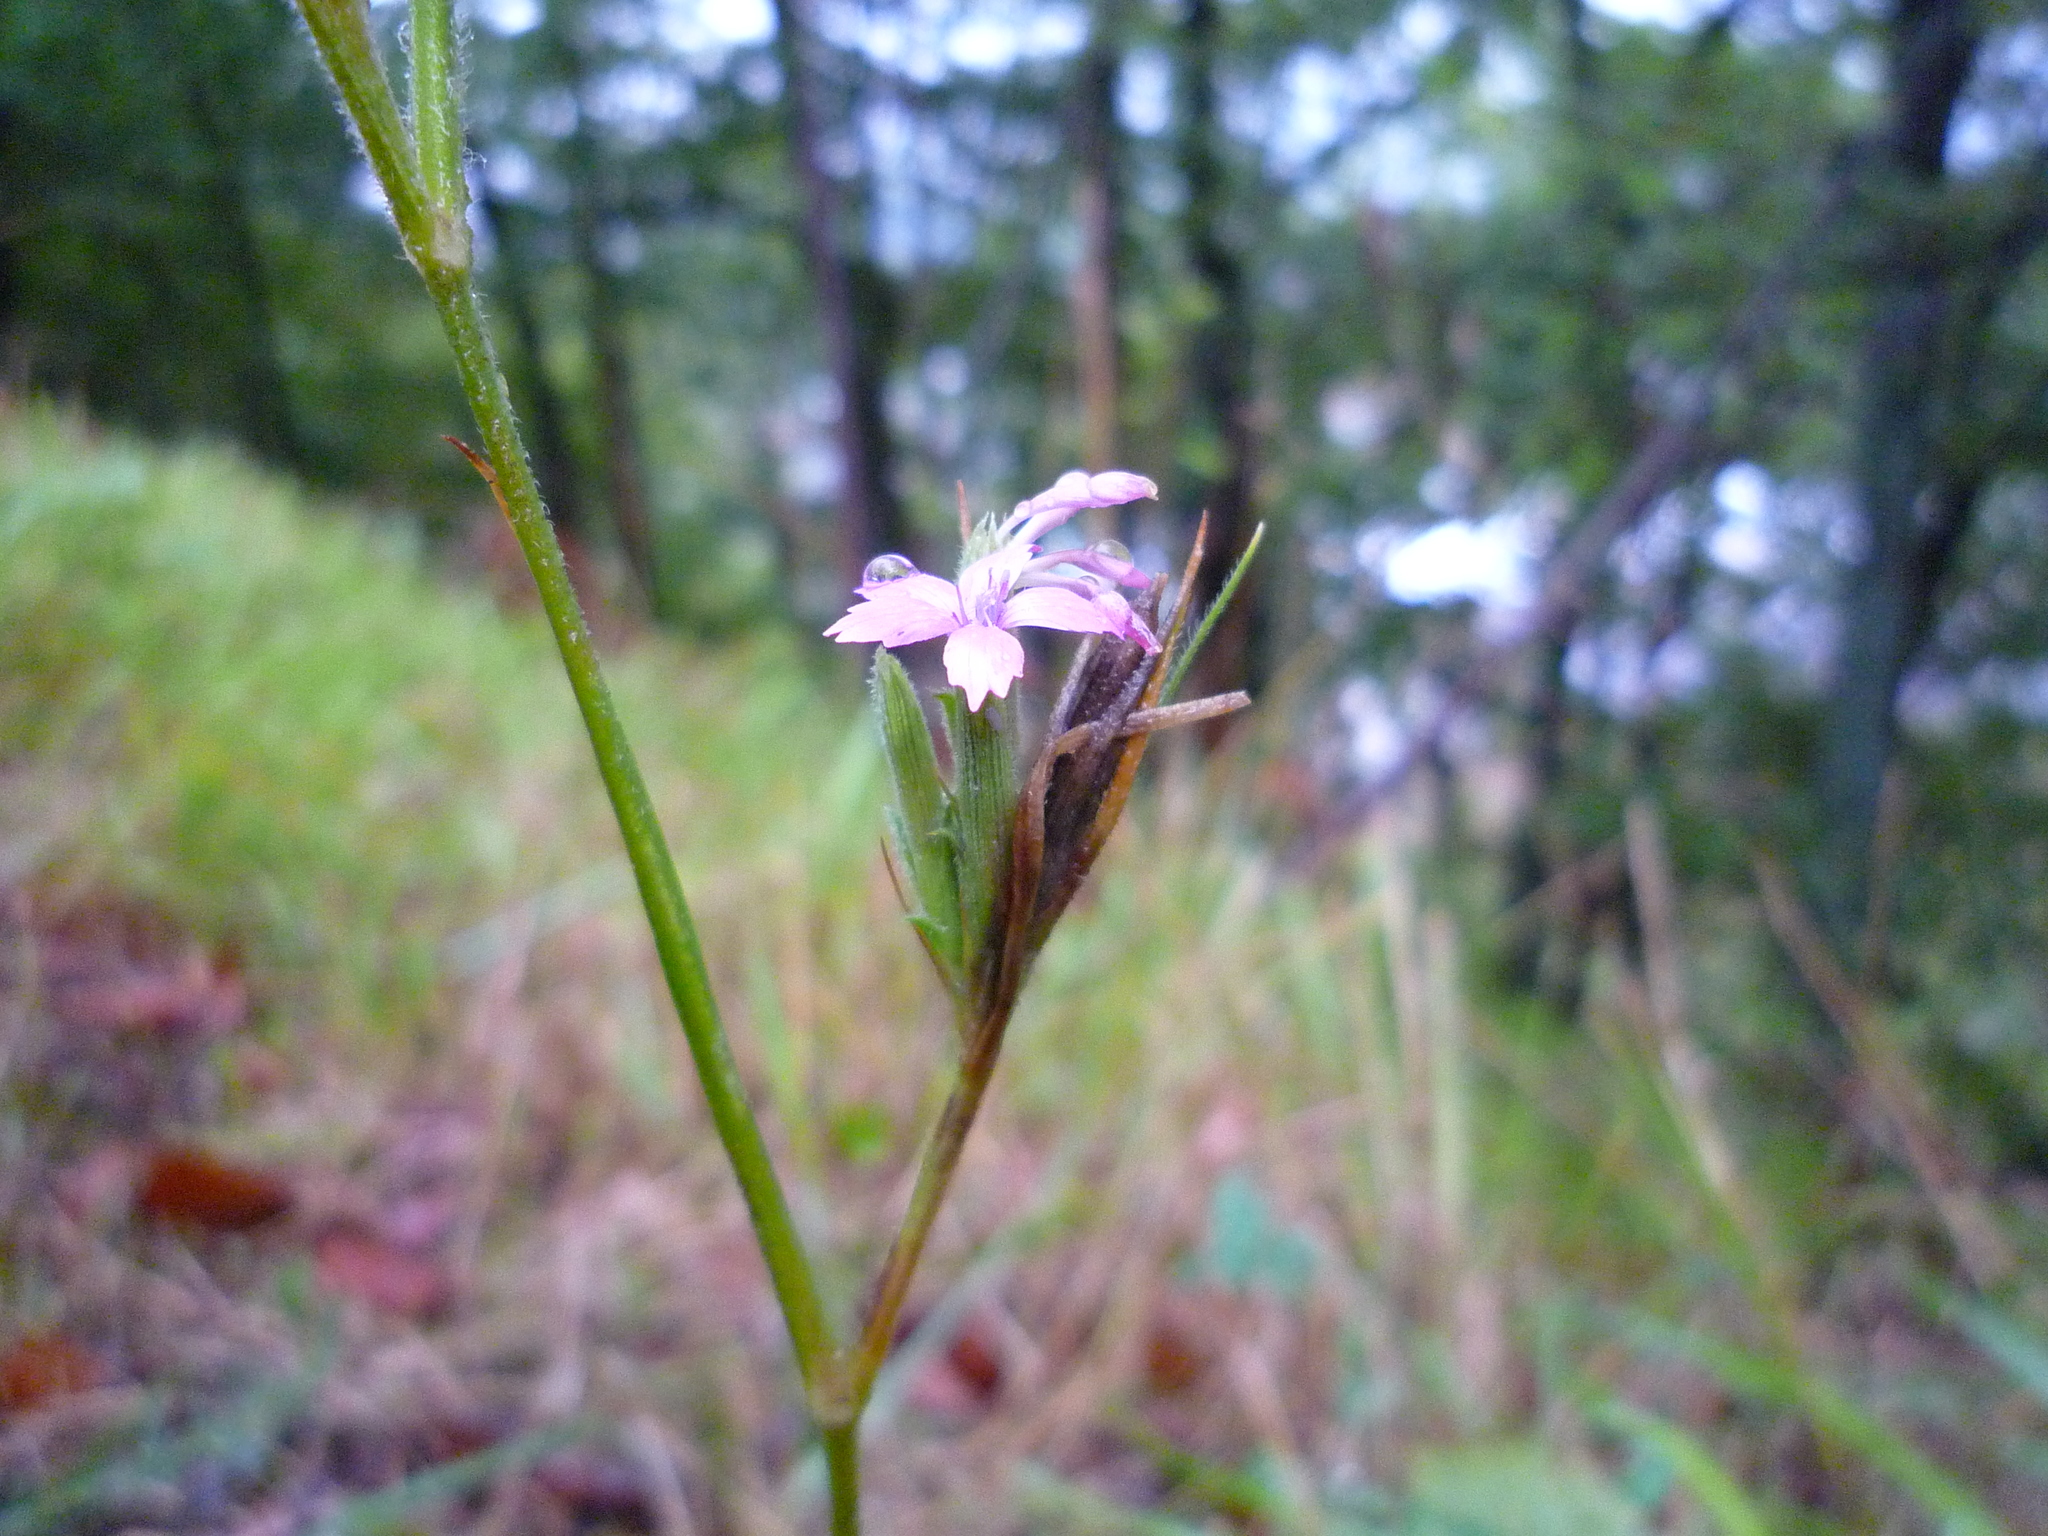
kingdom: Plantae
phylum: Tracheophyta
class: Magnoliopsida
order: Caryophyllales
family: Caryophyllaceae
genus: Dianthus
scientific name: Dianthus armeria
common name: Deptford pink
